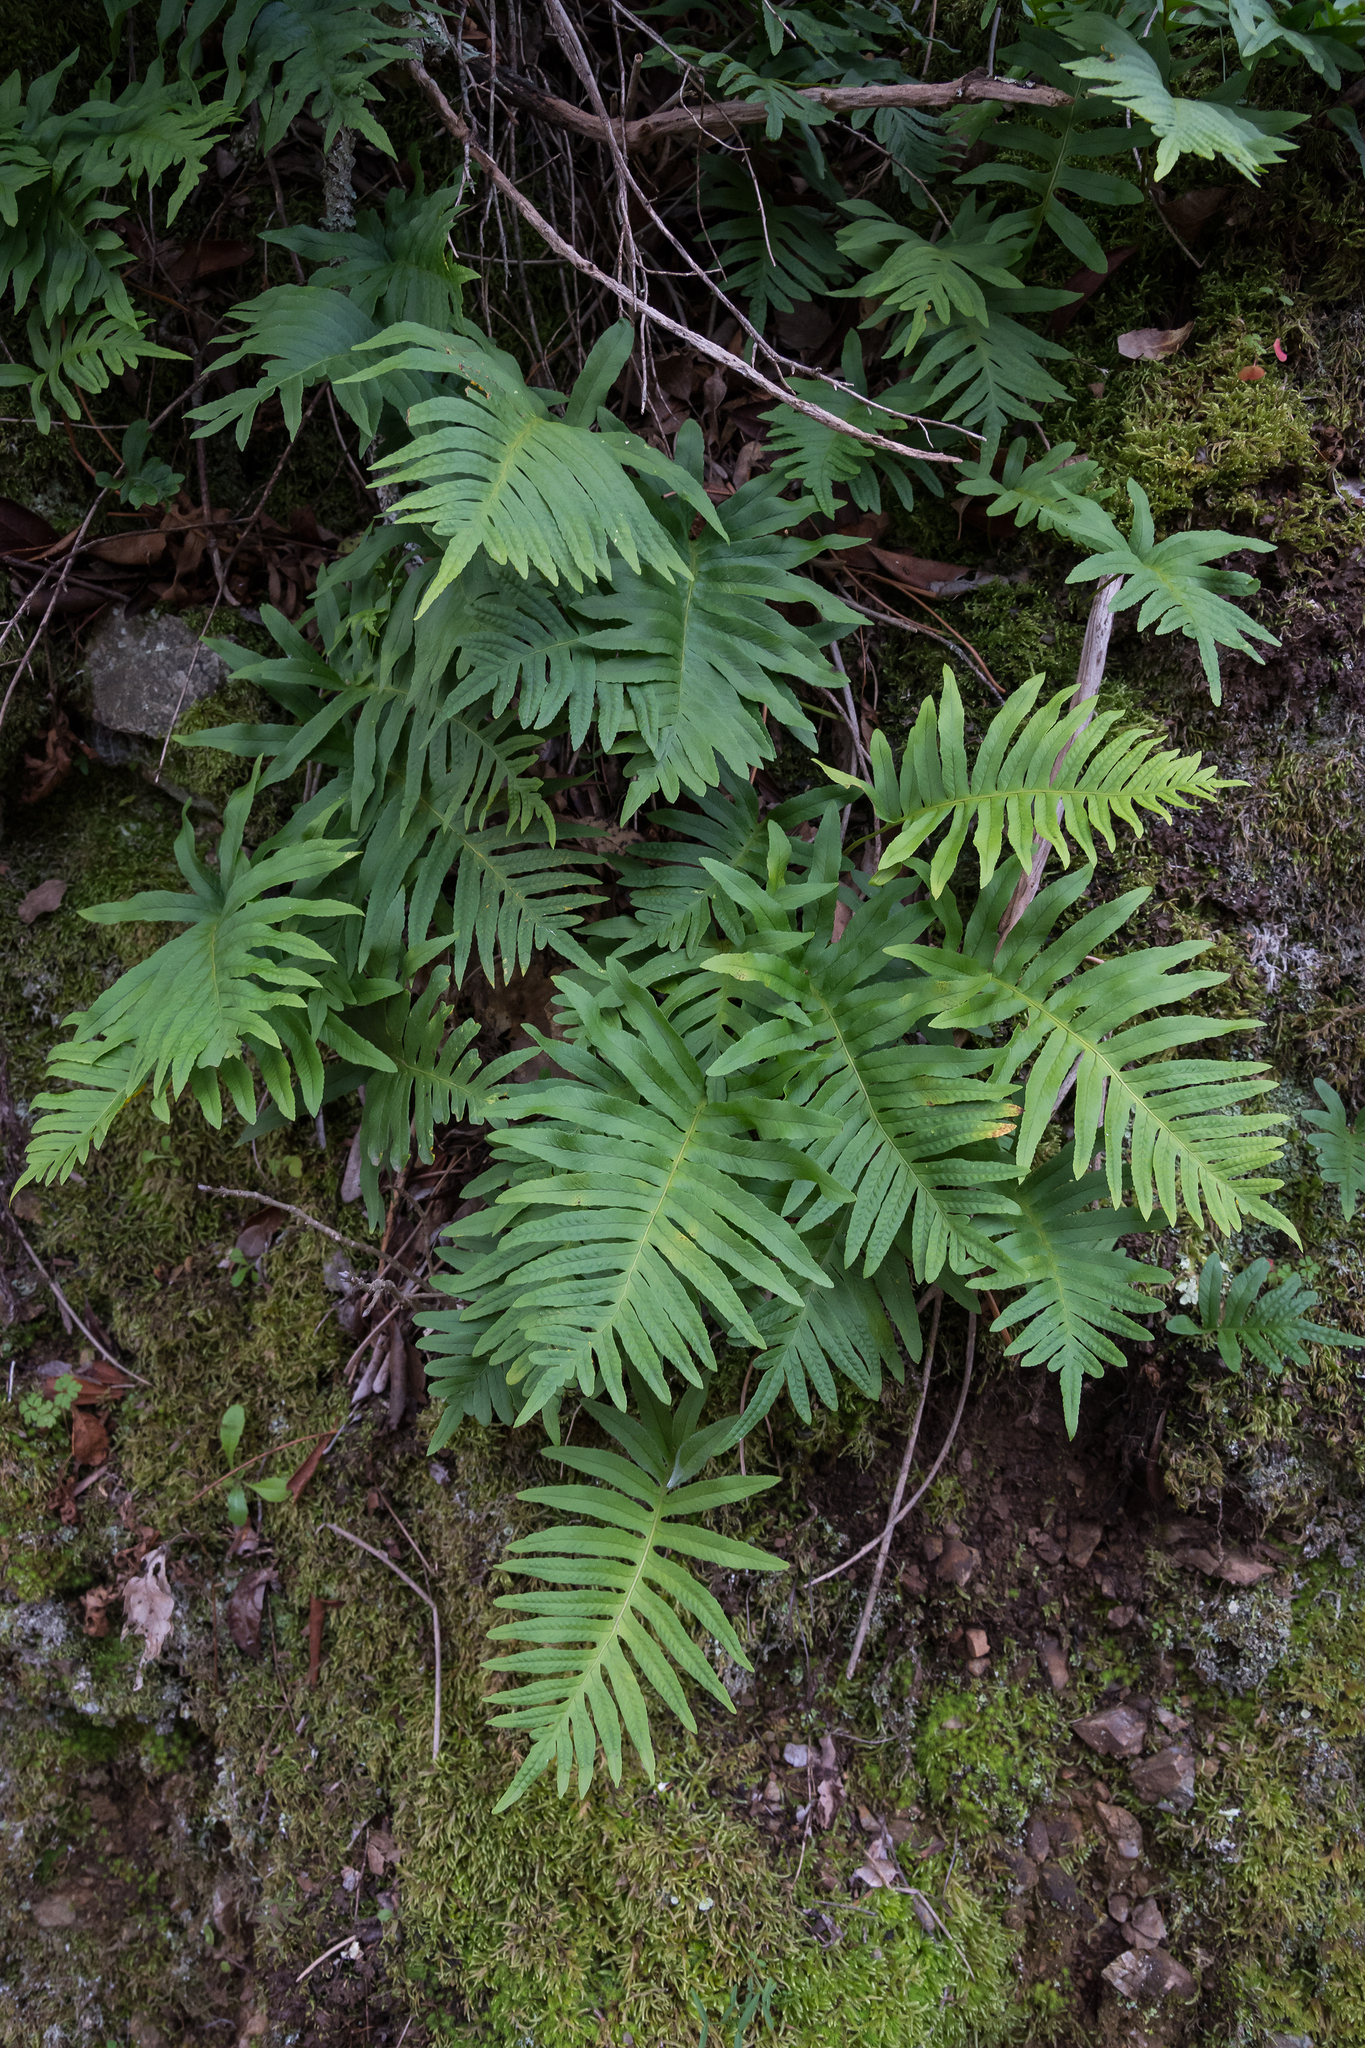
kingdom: Plantae
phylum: Tracheophyta
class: Polypodiopsida
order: Polypodiales
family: Polypodiaceae
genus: Polypodium
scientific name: Polypodium cambricum
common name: Southern polypody
